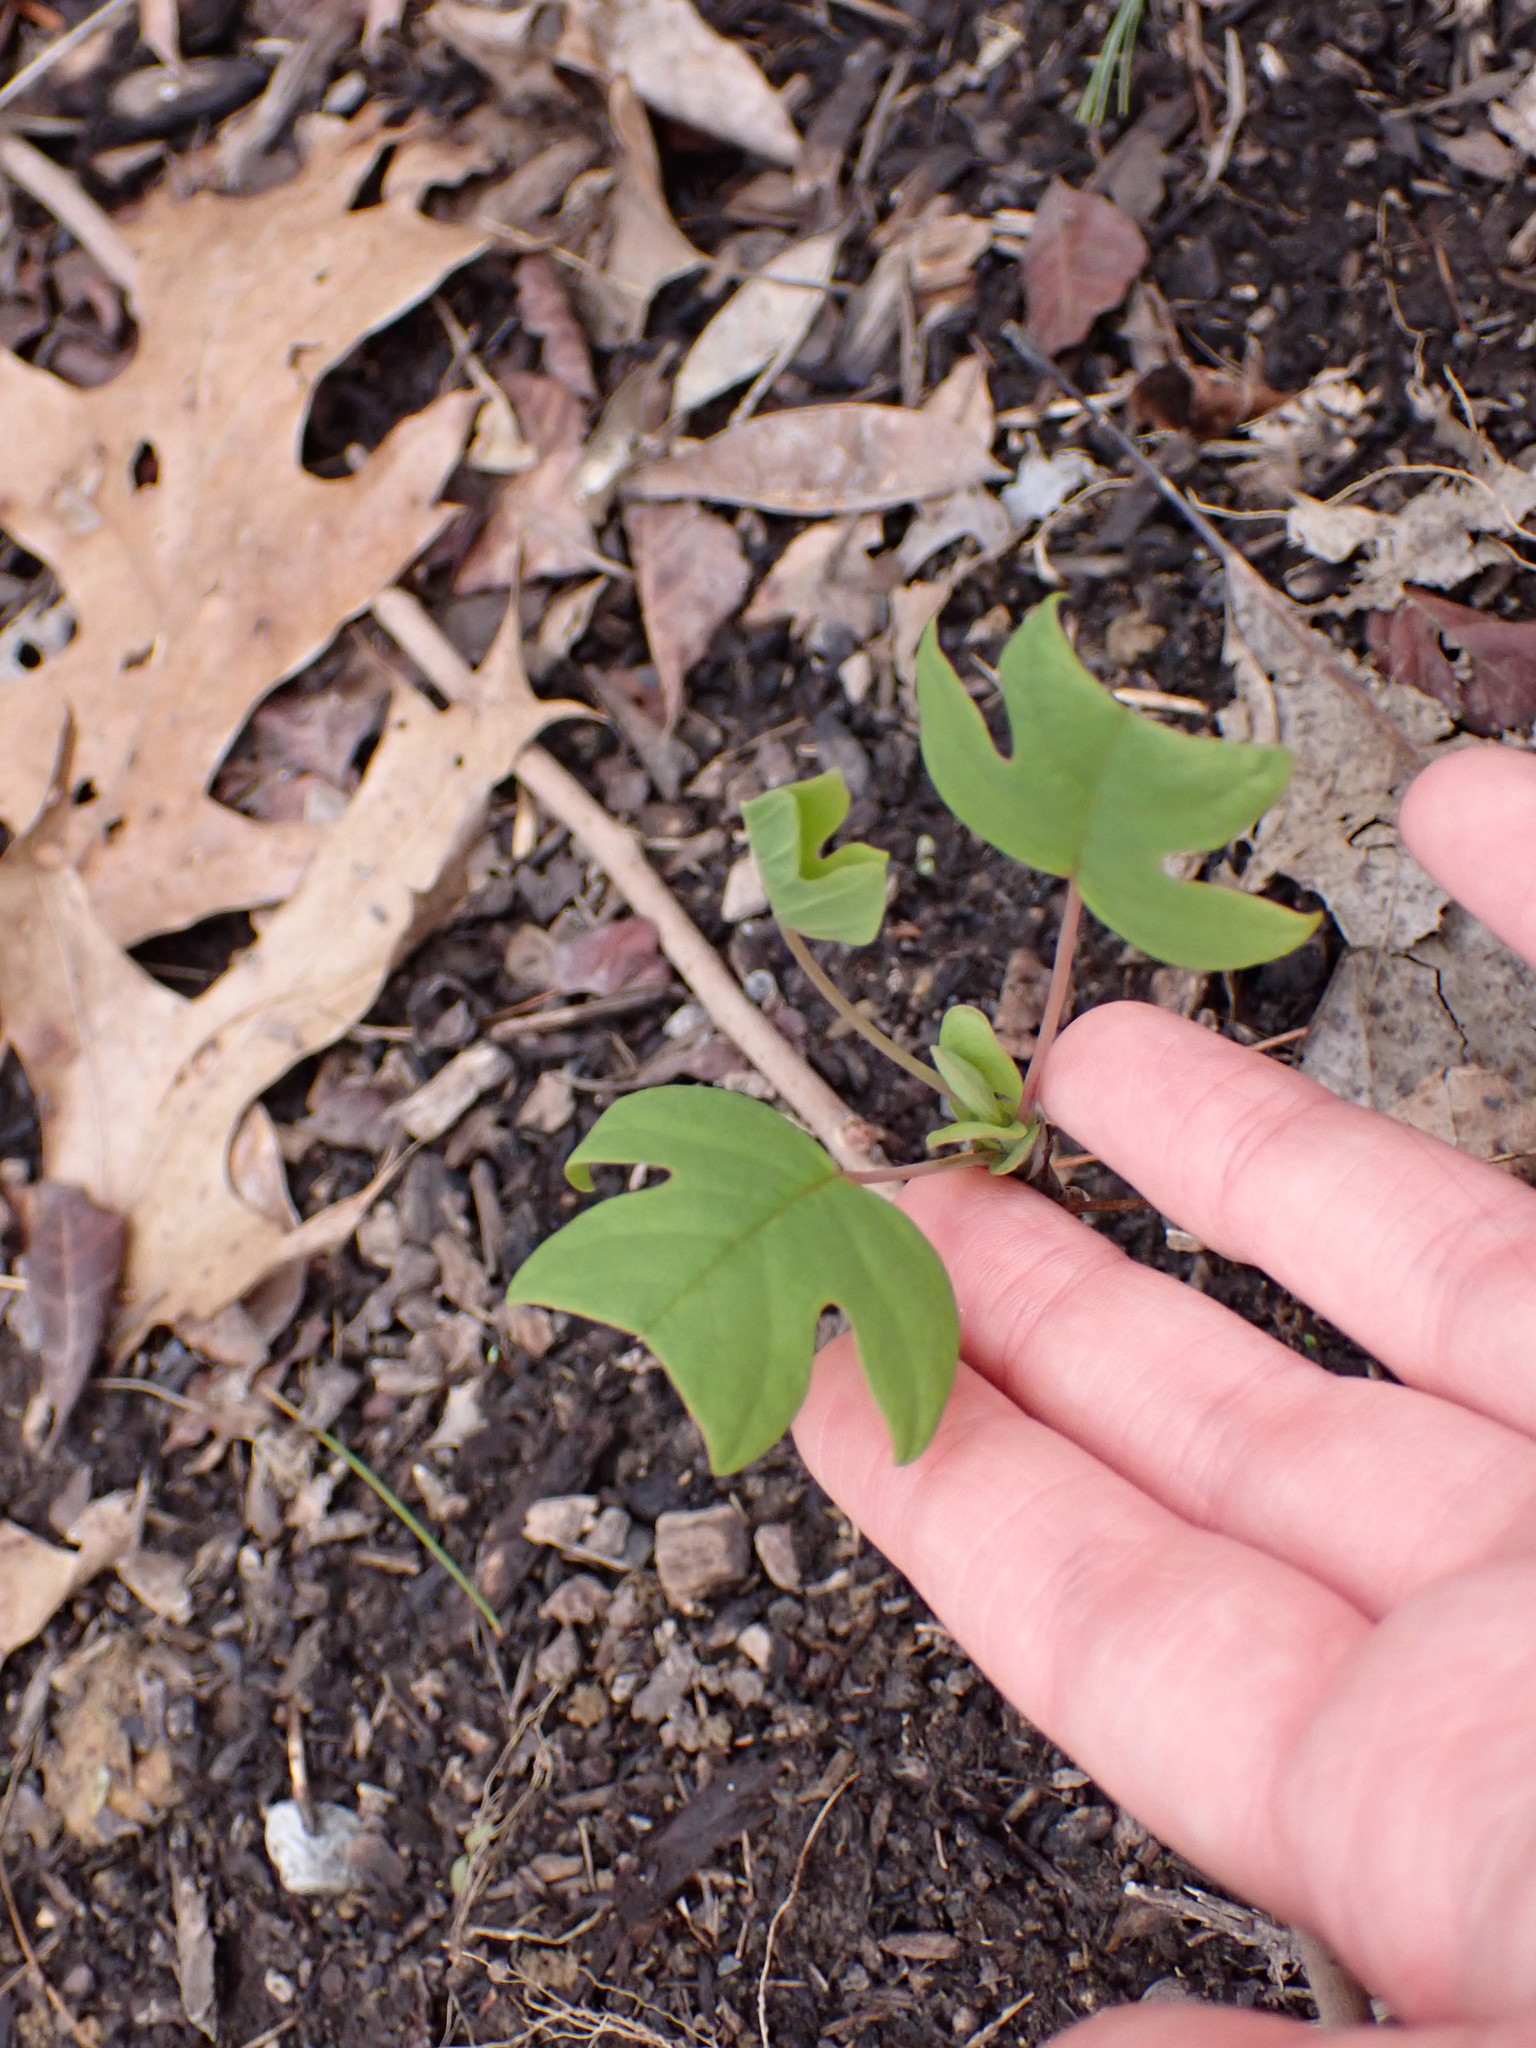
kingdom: Plantae
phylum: Tracheophyta
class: Magnoliopsida
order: Magnoliales
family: Magnoliaceae
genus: Liriodendron
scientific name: Liriodendron tulipifera
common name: Tulip tree
